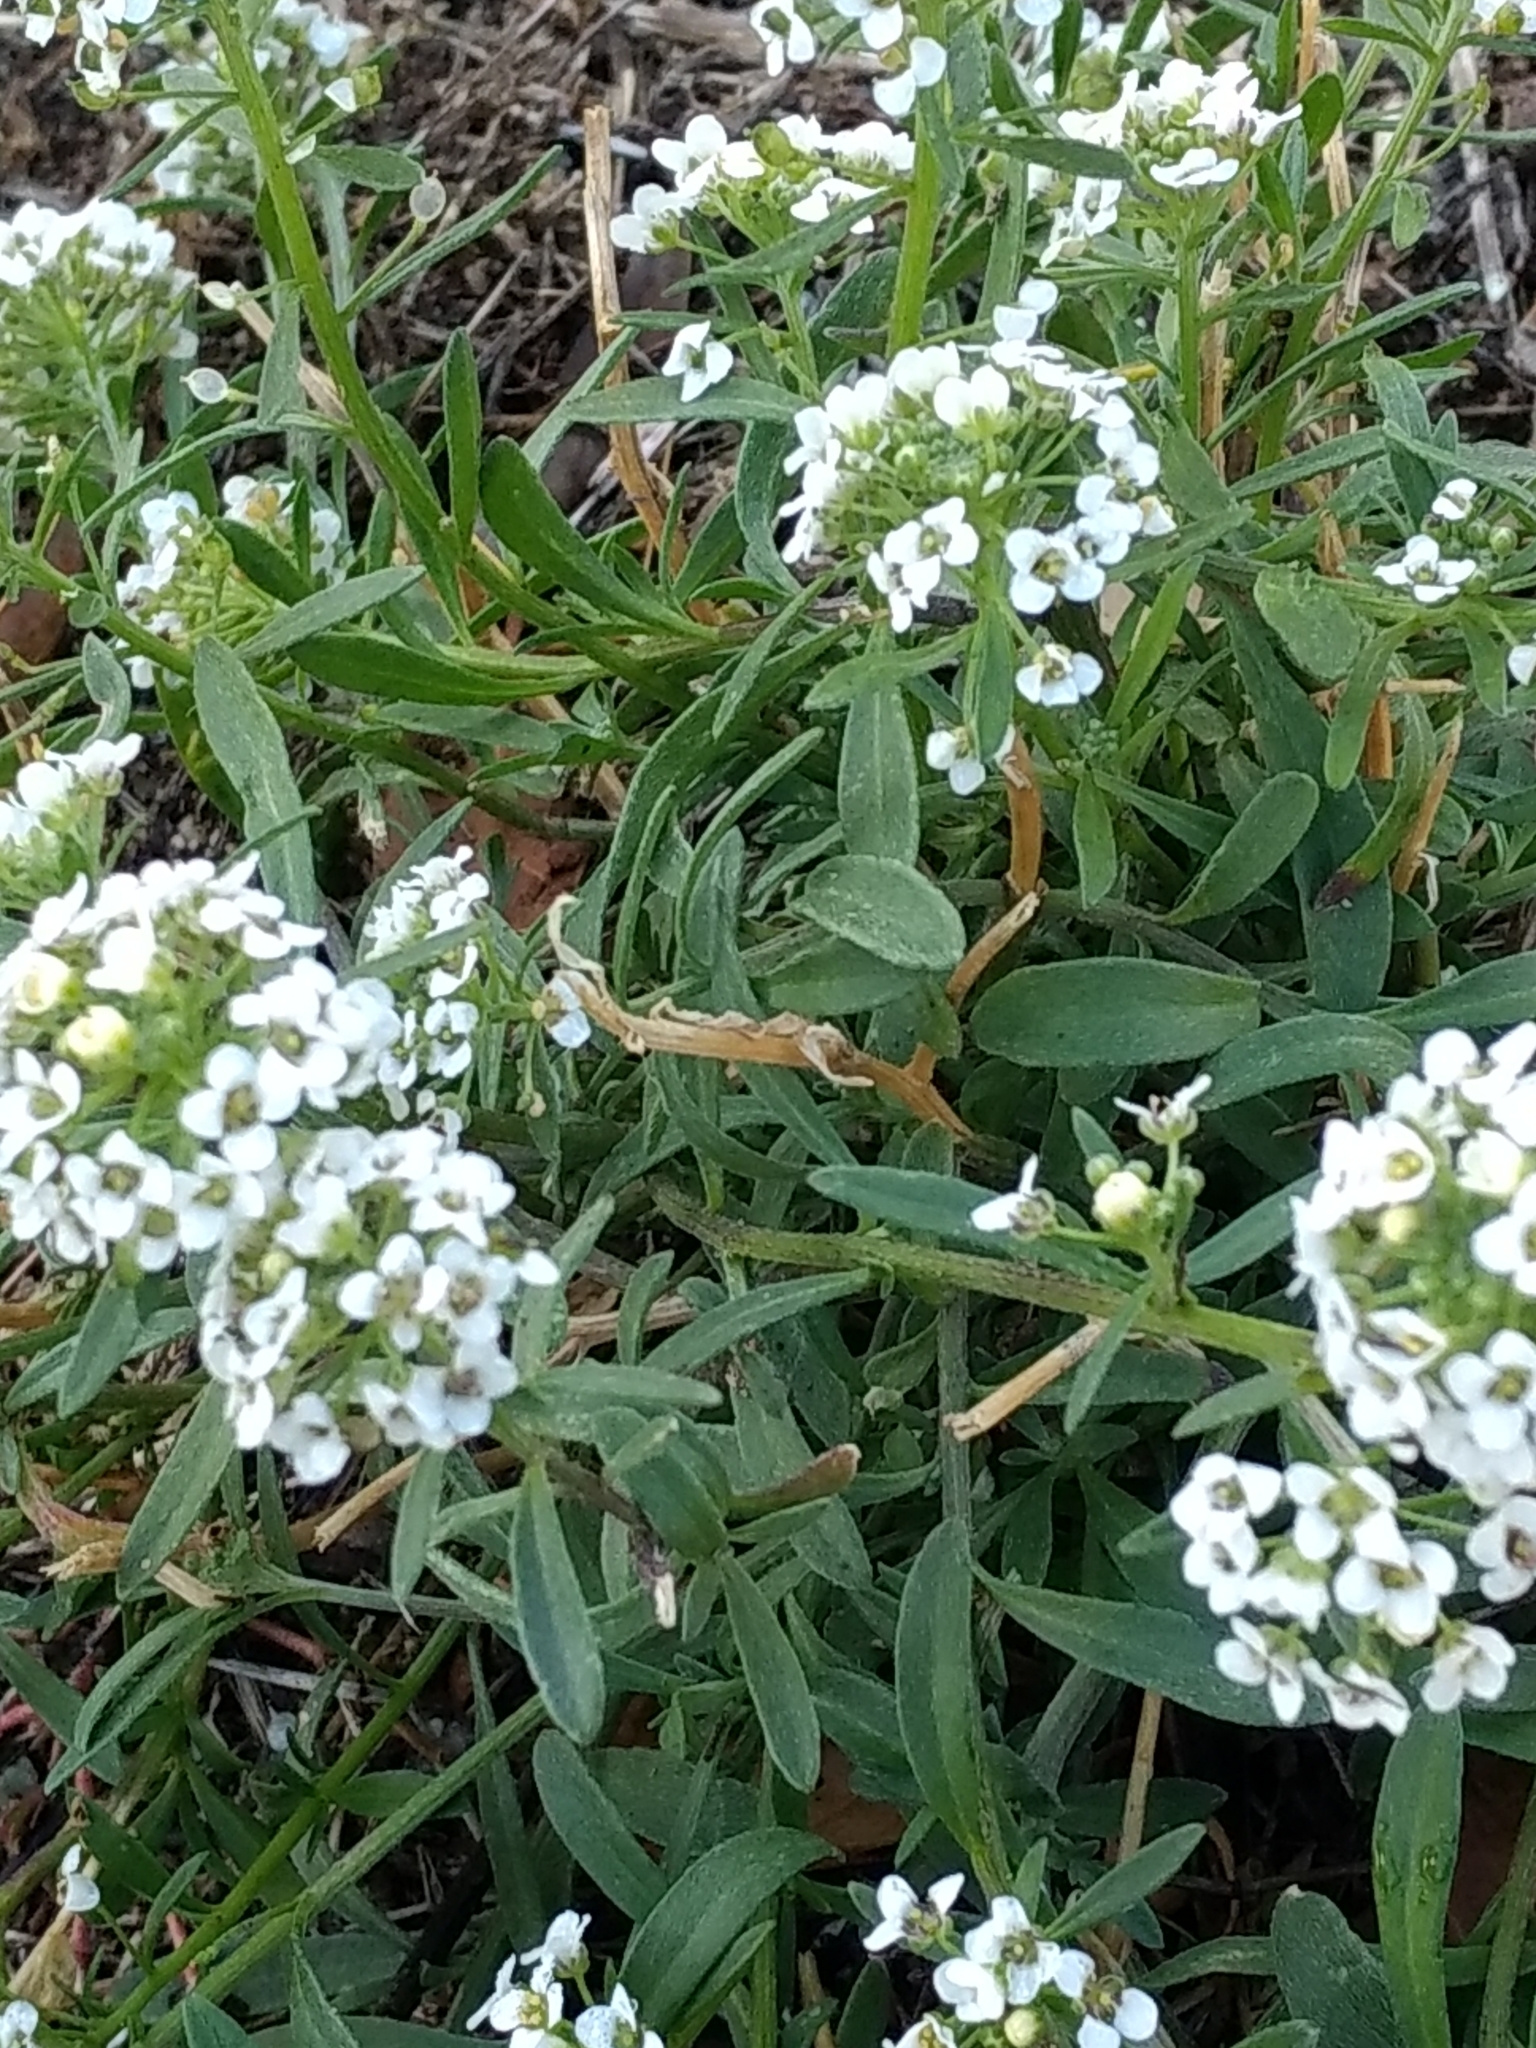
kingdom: Plantae
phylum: Tracheophyta
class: Magnoliopsida
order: Brassicales
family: Brassicaceae
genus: Lobularia
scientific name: Lobularia maritima
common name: Sweet alison
